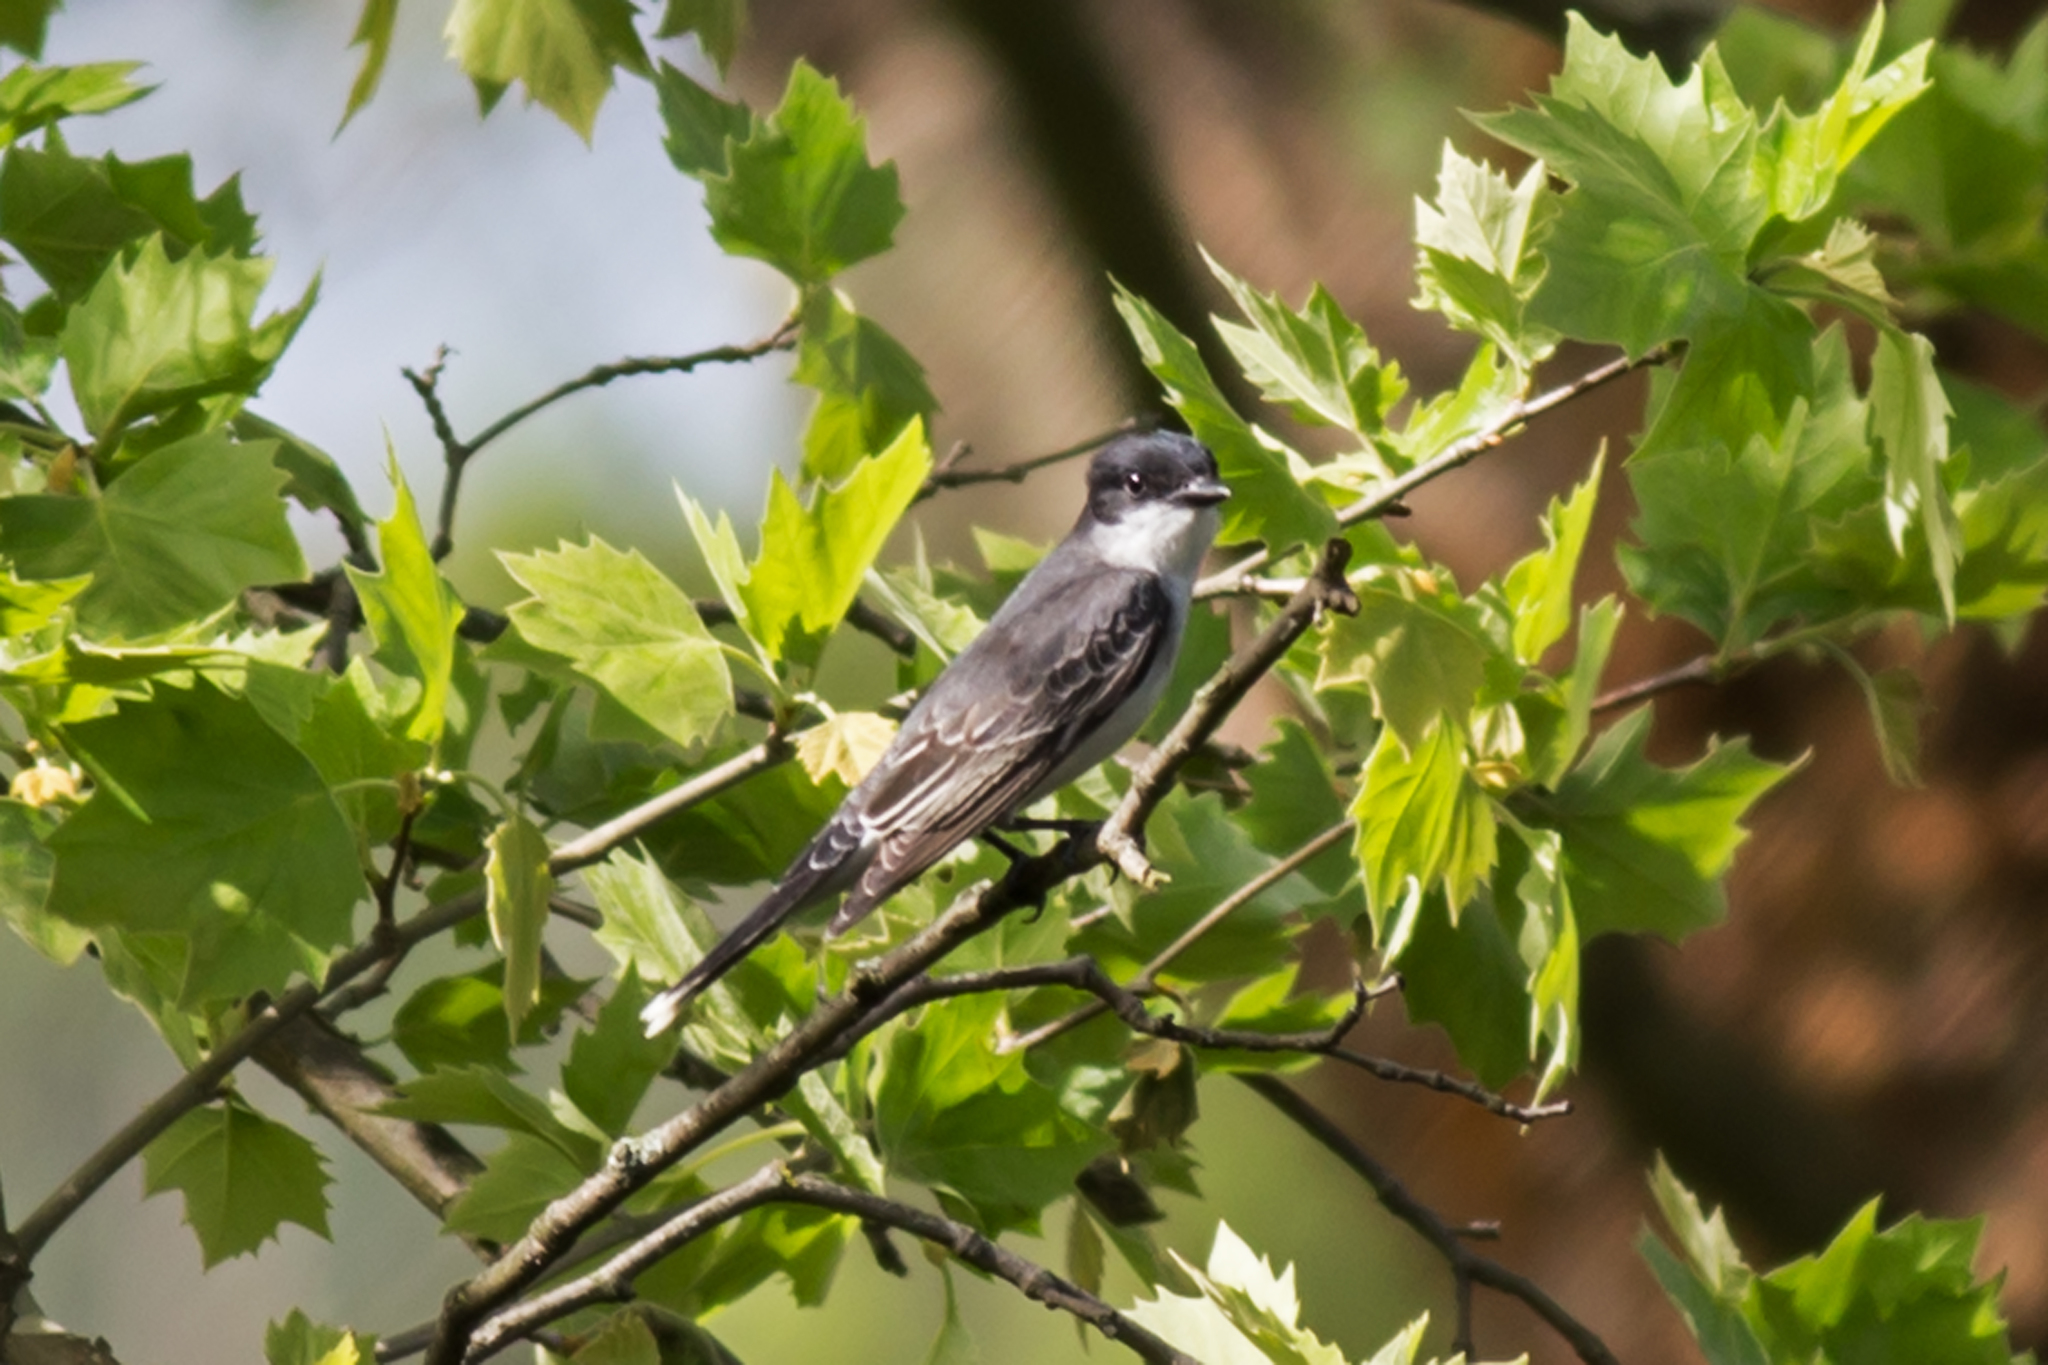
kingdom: Animalia
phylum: Chordata
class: Aves
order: Passeriformes
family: Tyrannidae
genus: Tyrannus
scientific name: Tyrannus tyrannus
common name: Eastern kingbird
